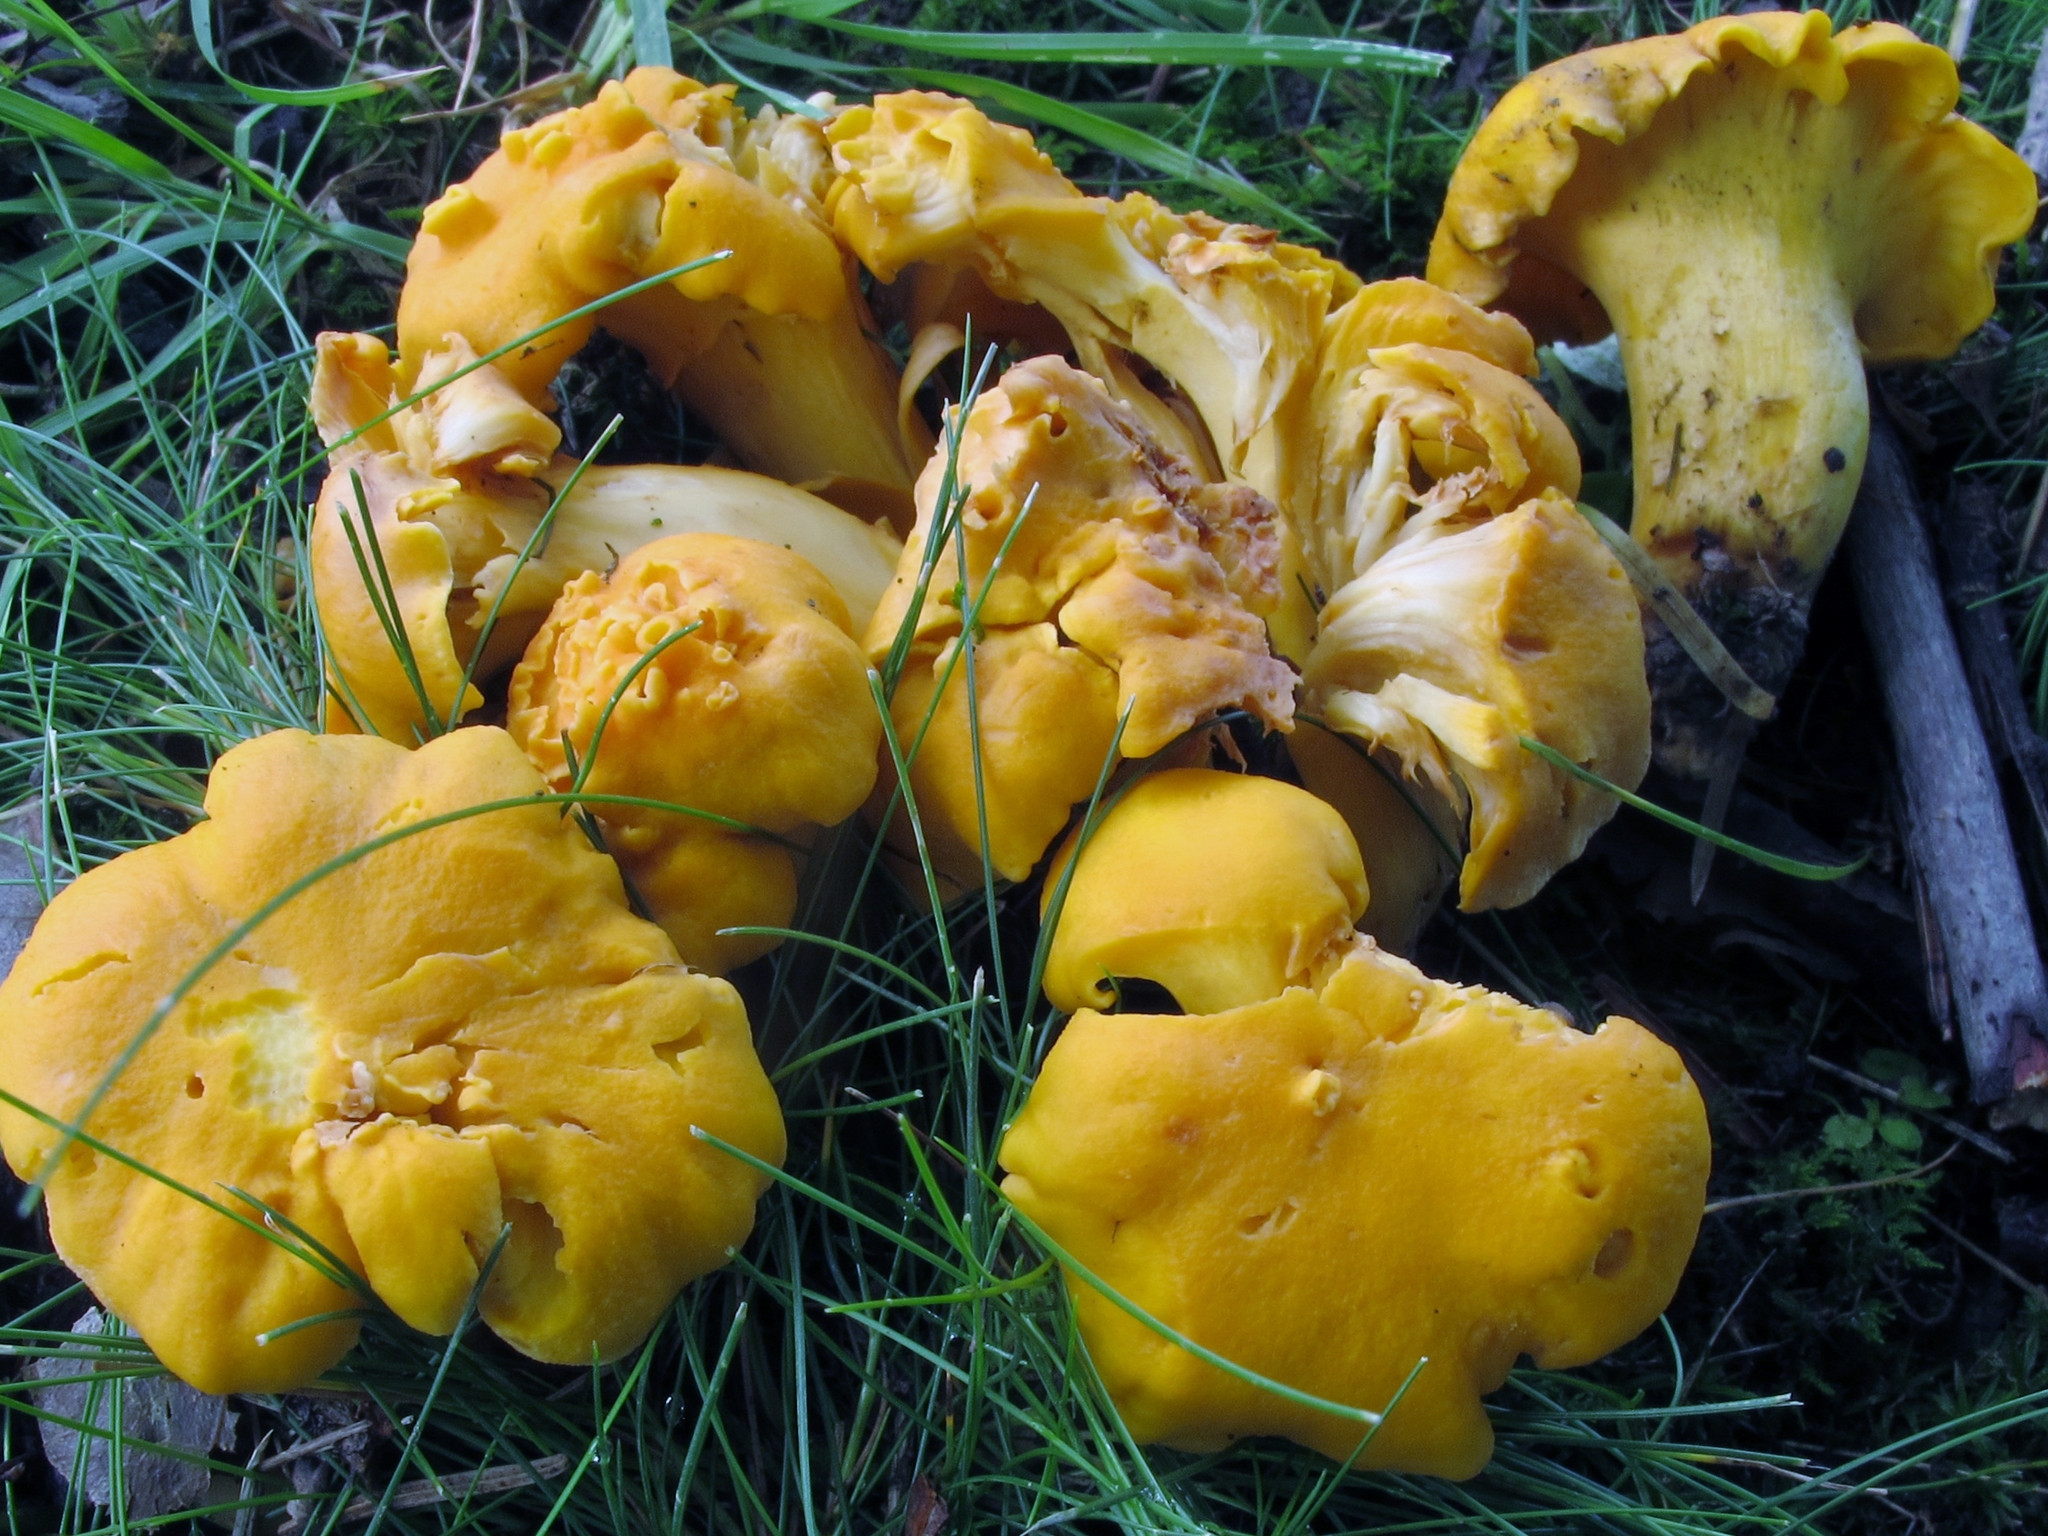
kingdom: Fungi
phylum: Basidiomycota
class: Agaricomycetes
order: Cantharellales
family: Hydnaceae
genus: Cantharellus
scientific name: Cantharellus lateritius
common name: Smooth chanterelle
